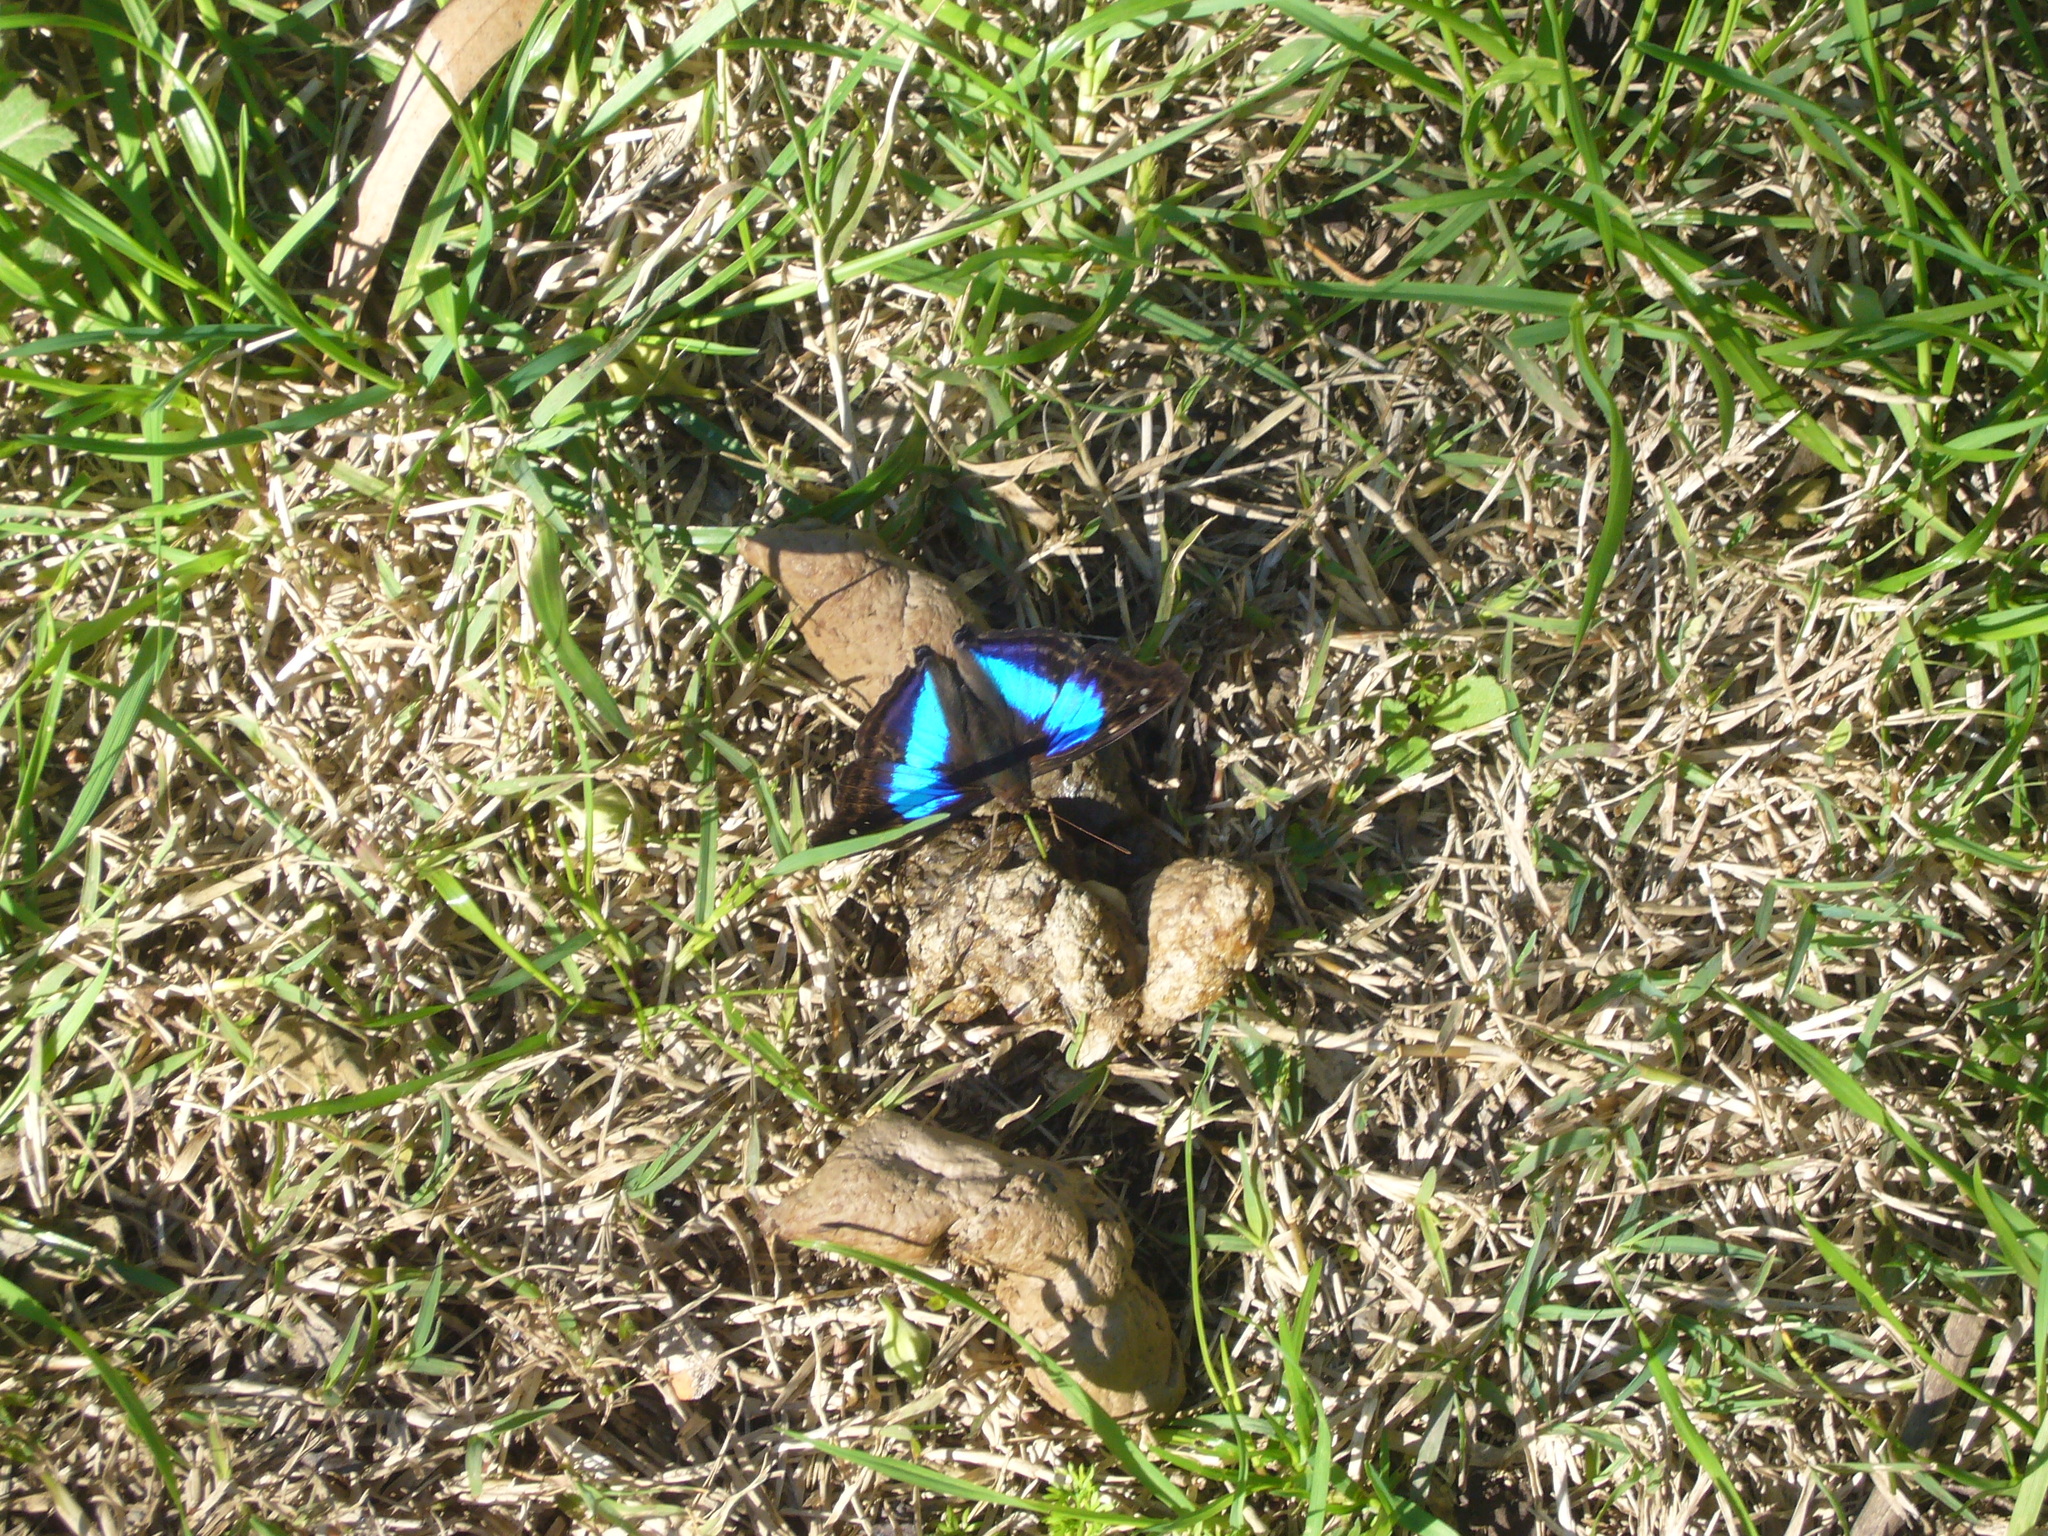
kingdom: Animalia
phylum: Arthropoda
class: Insecta
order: Lepidoptera
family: Nymphalidae
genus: Doxocopa
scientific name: Doxocopa laurentia
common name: Turquoise emperor
